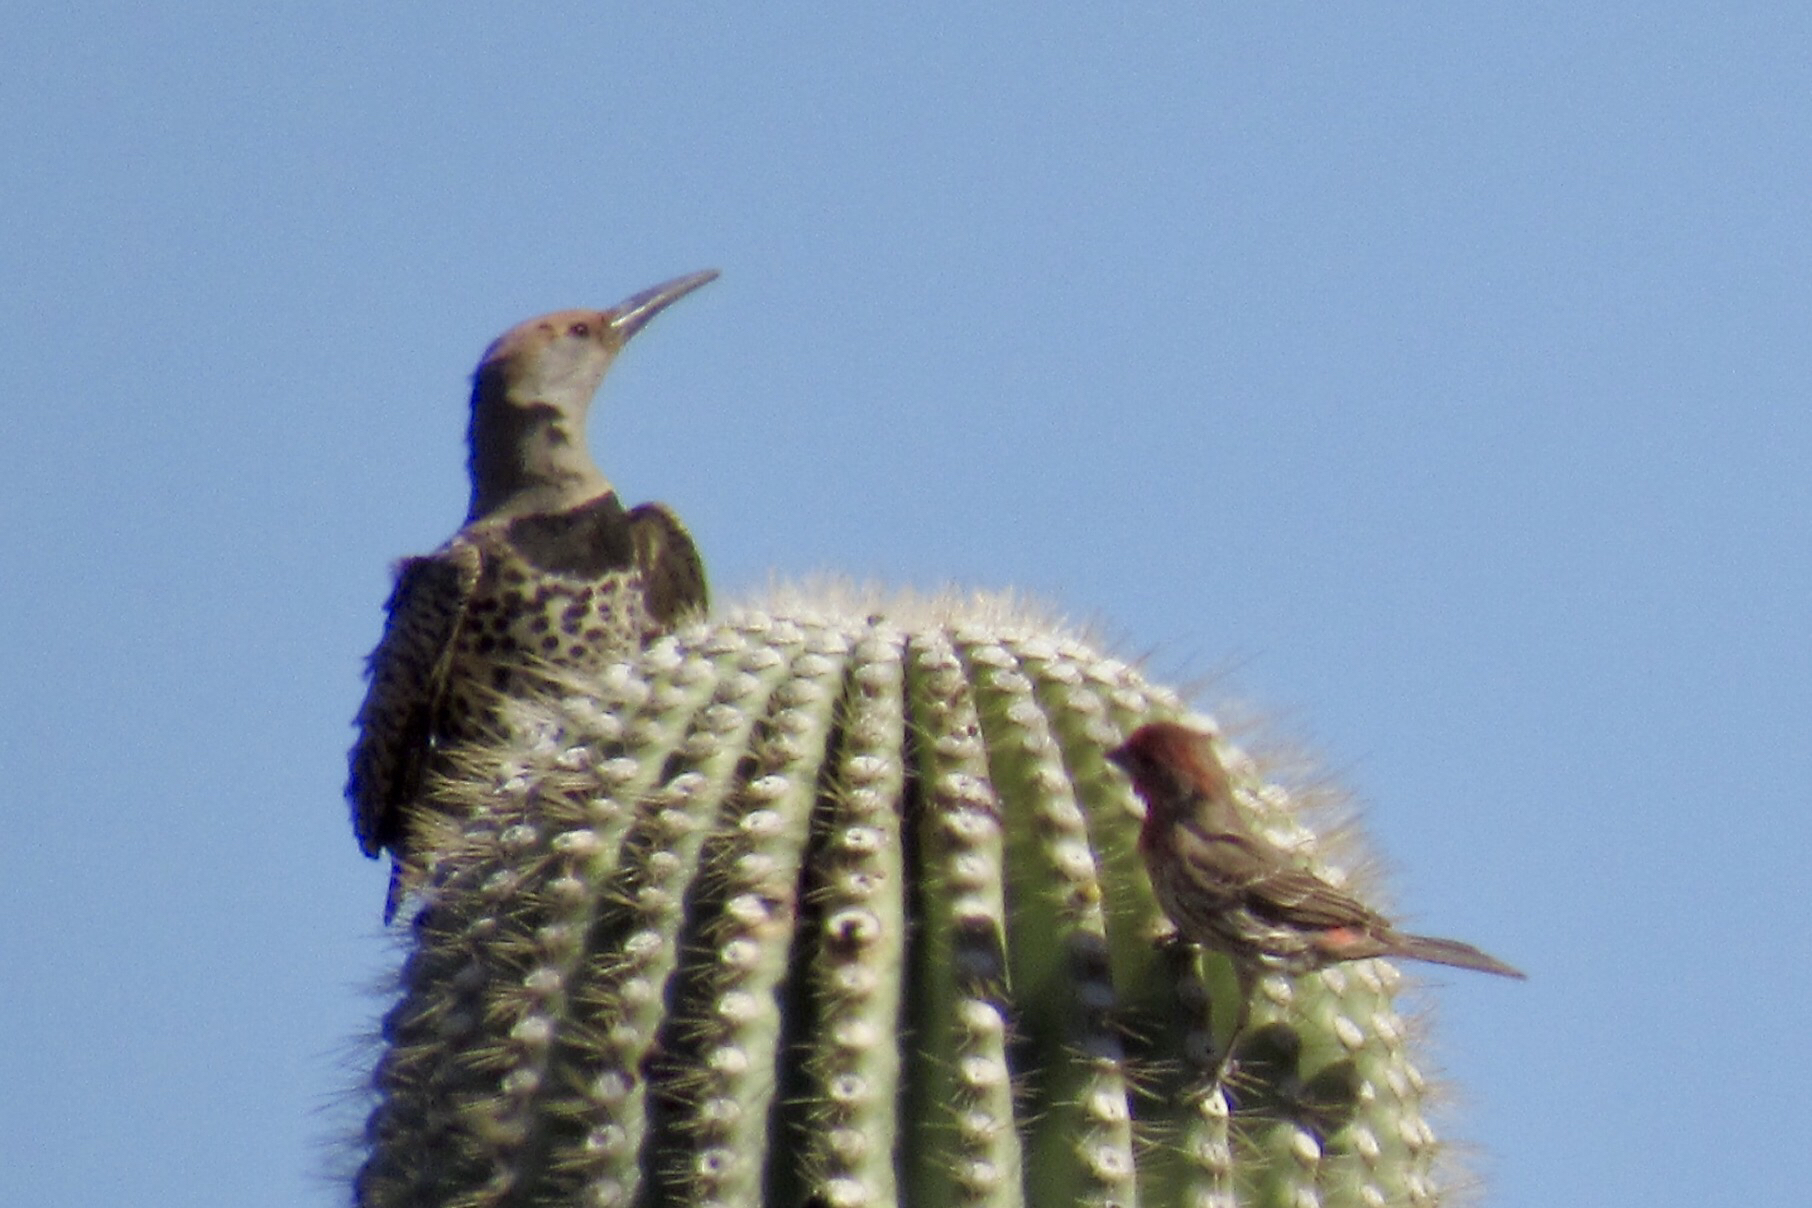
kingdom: Animalia
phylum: Chordata
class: Aves
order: Piciformes
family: Picidae
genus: Colaptes
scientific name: Colaptes chrysoides
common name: Gilded flicker
